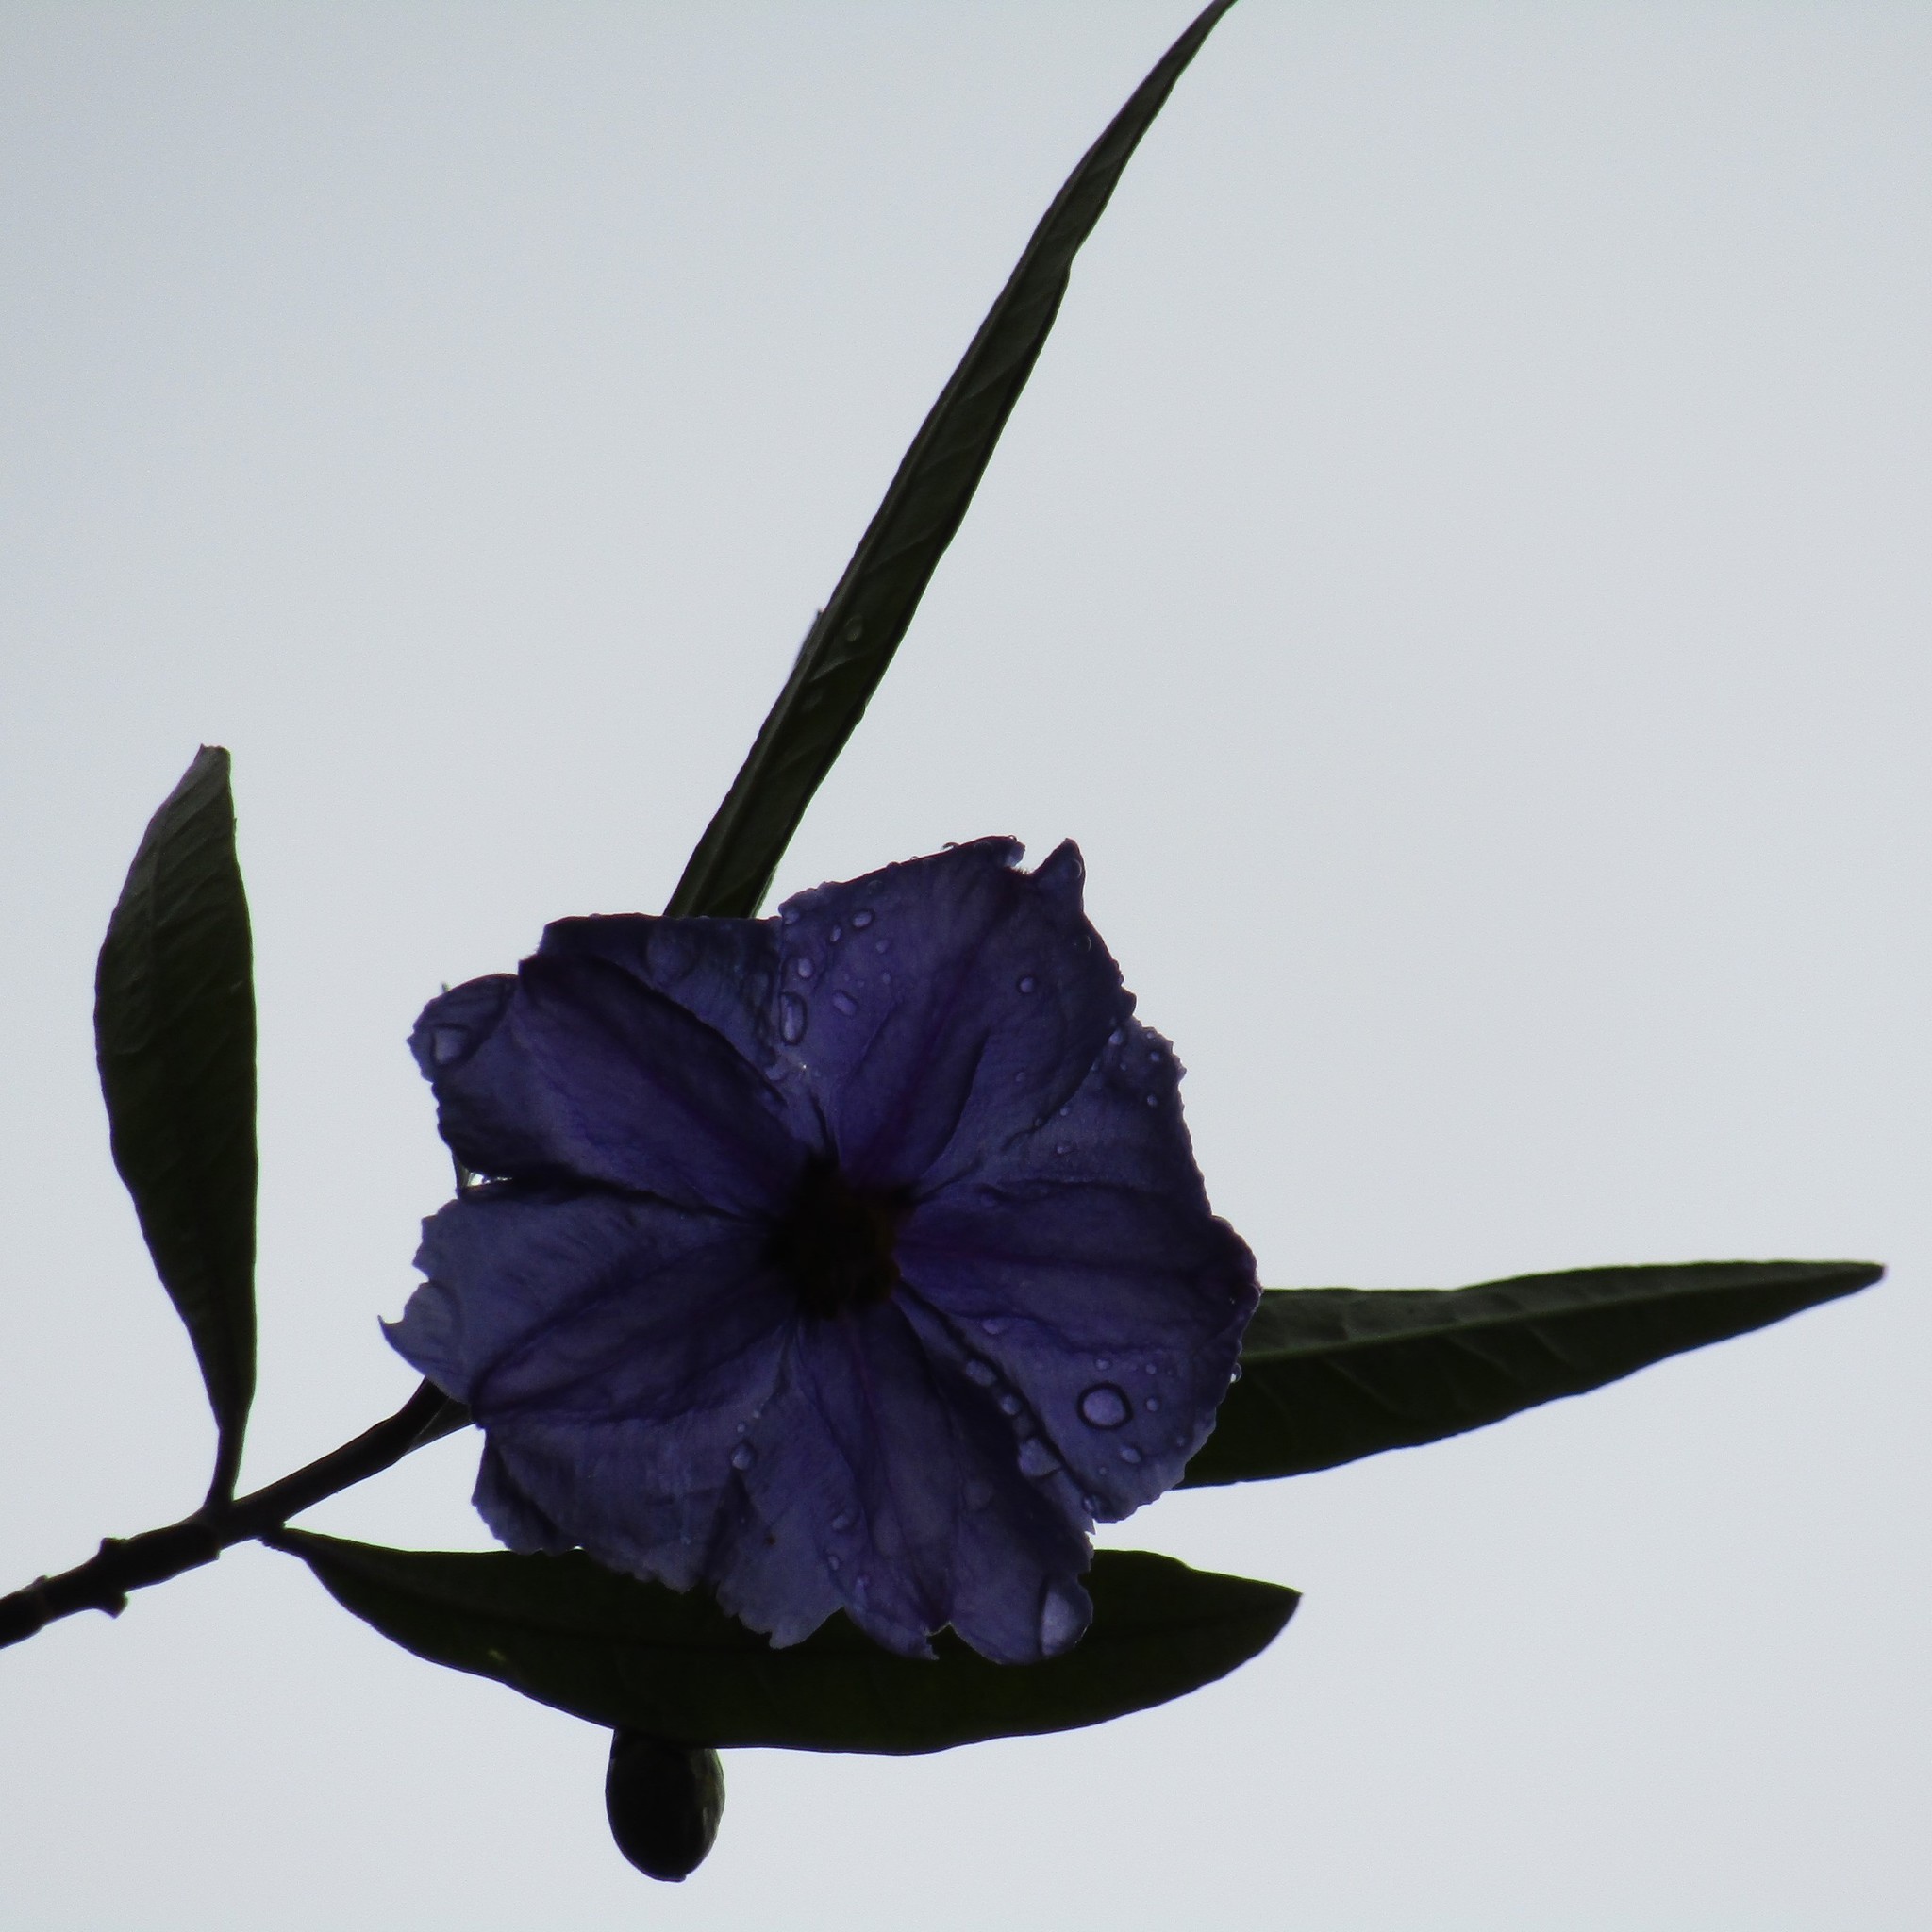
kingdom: Plantae
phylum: Tracheophyta
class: Magnoliopsida
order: Solanales
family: Solanaceae
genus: Solanum
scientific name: Solanum laciniatum
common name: Kangaroo-apple
